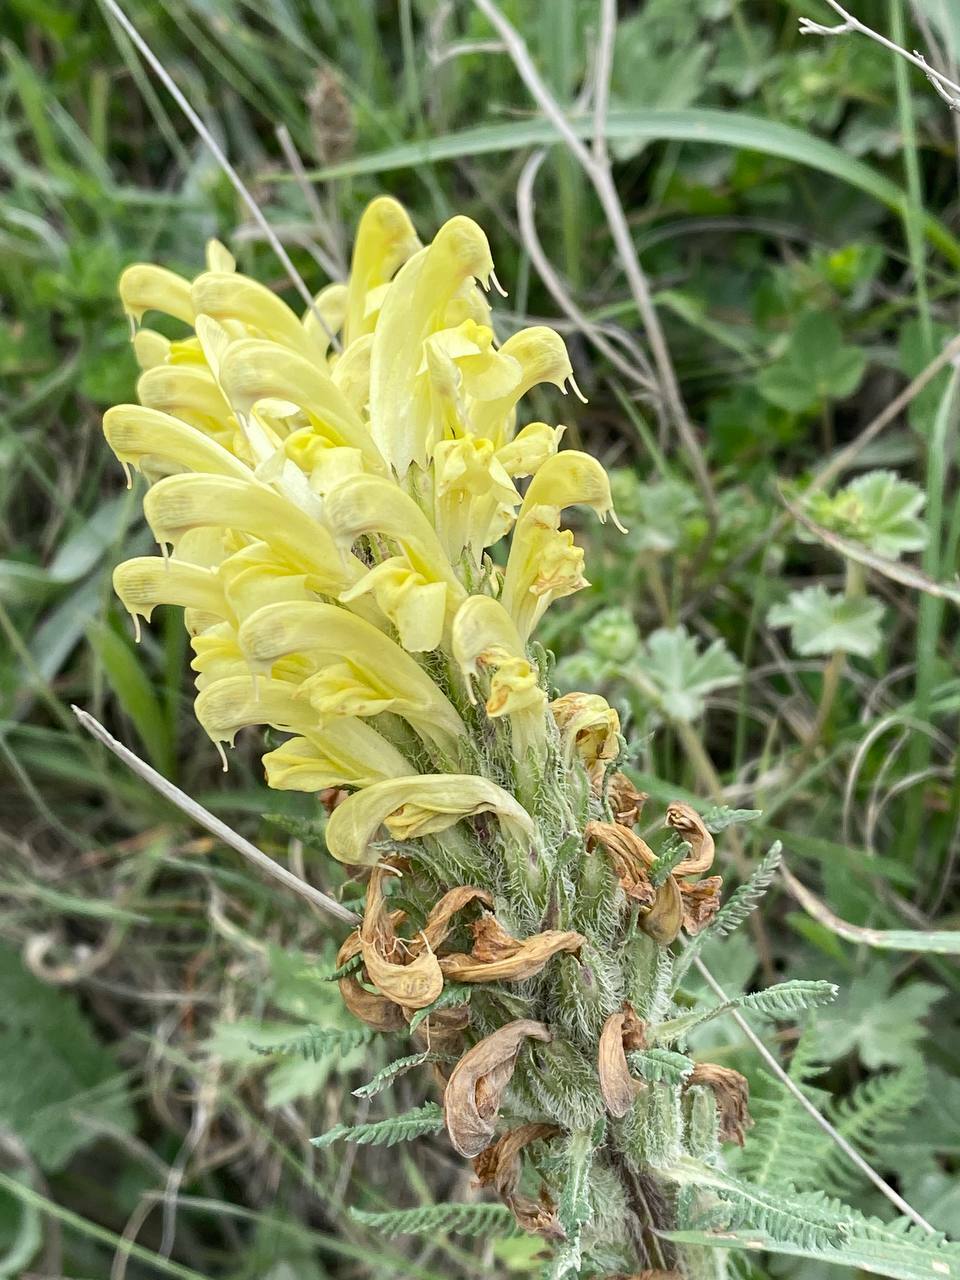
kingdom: Plantae
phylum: Tracheophyta
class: Magnoliopsida
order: Lamiales
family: Orobanchaceae
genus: Pedicularis
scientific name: Pedicularis sibthorpii
